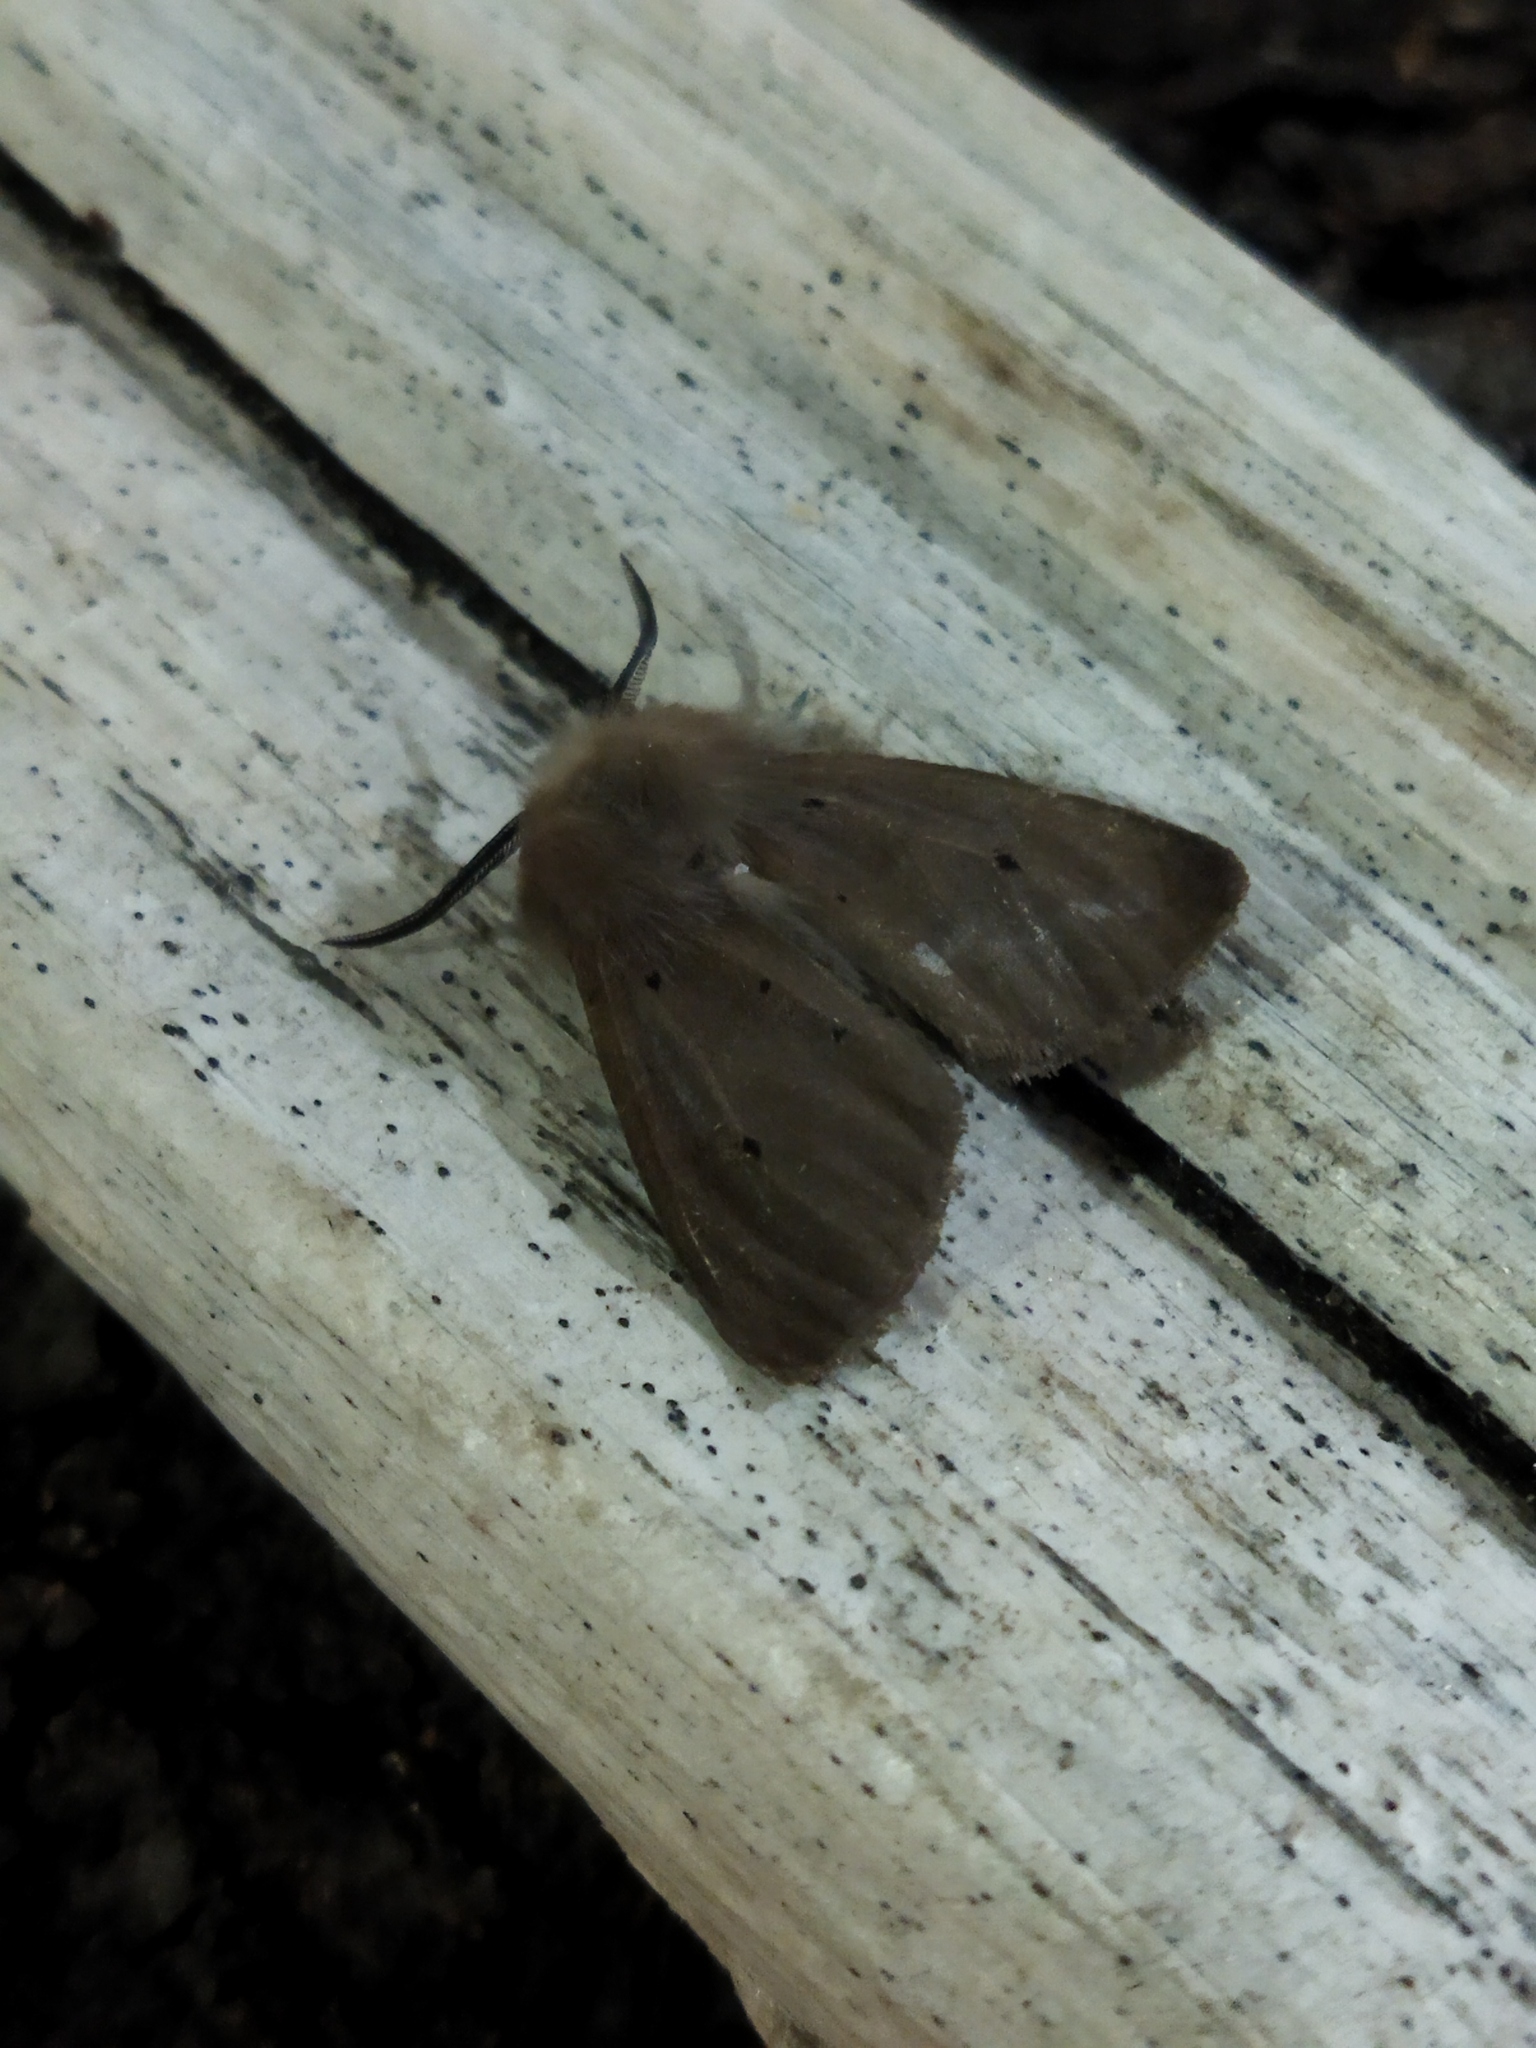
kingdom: Animalia
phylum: Arthropoda
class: Insecta
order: Lepidoptera
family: Erebidae
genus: Diaphora
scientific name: Diaphora mendica
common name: Muslin moth
